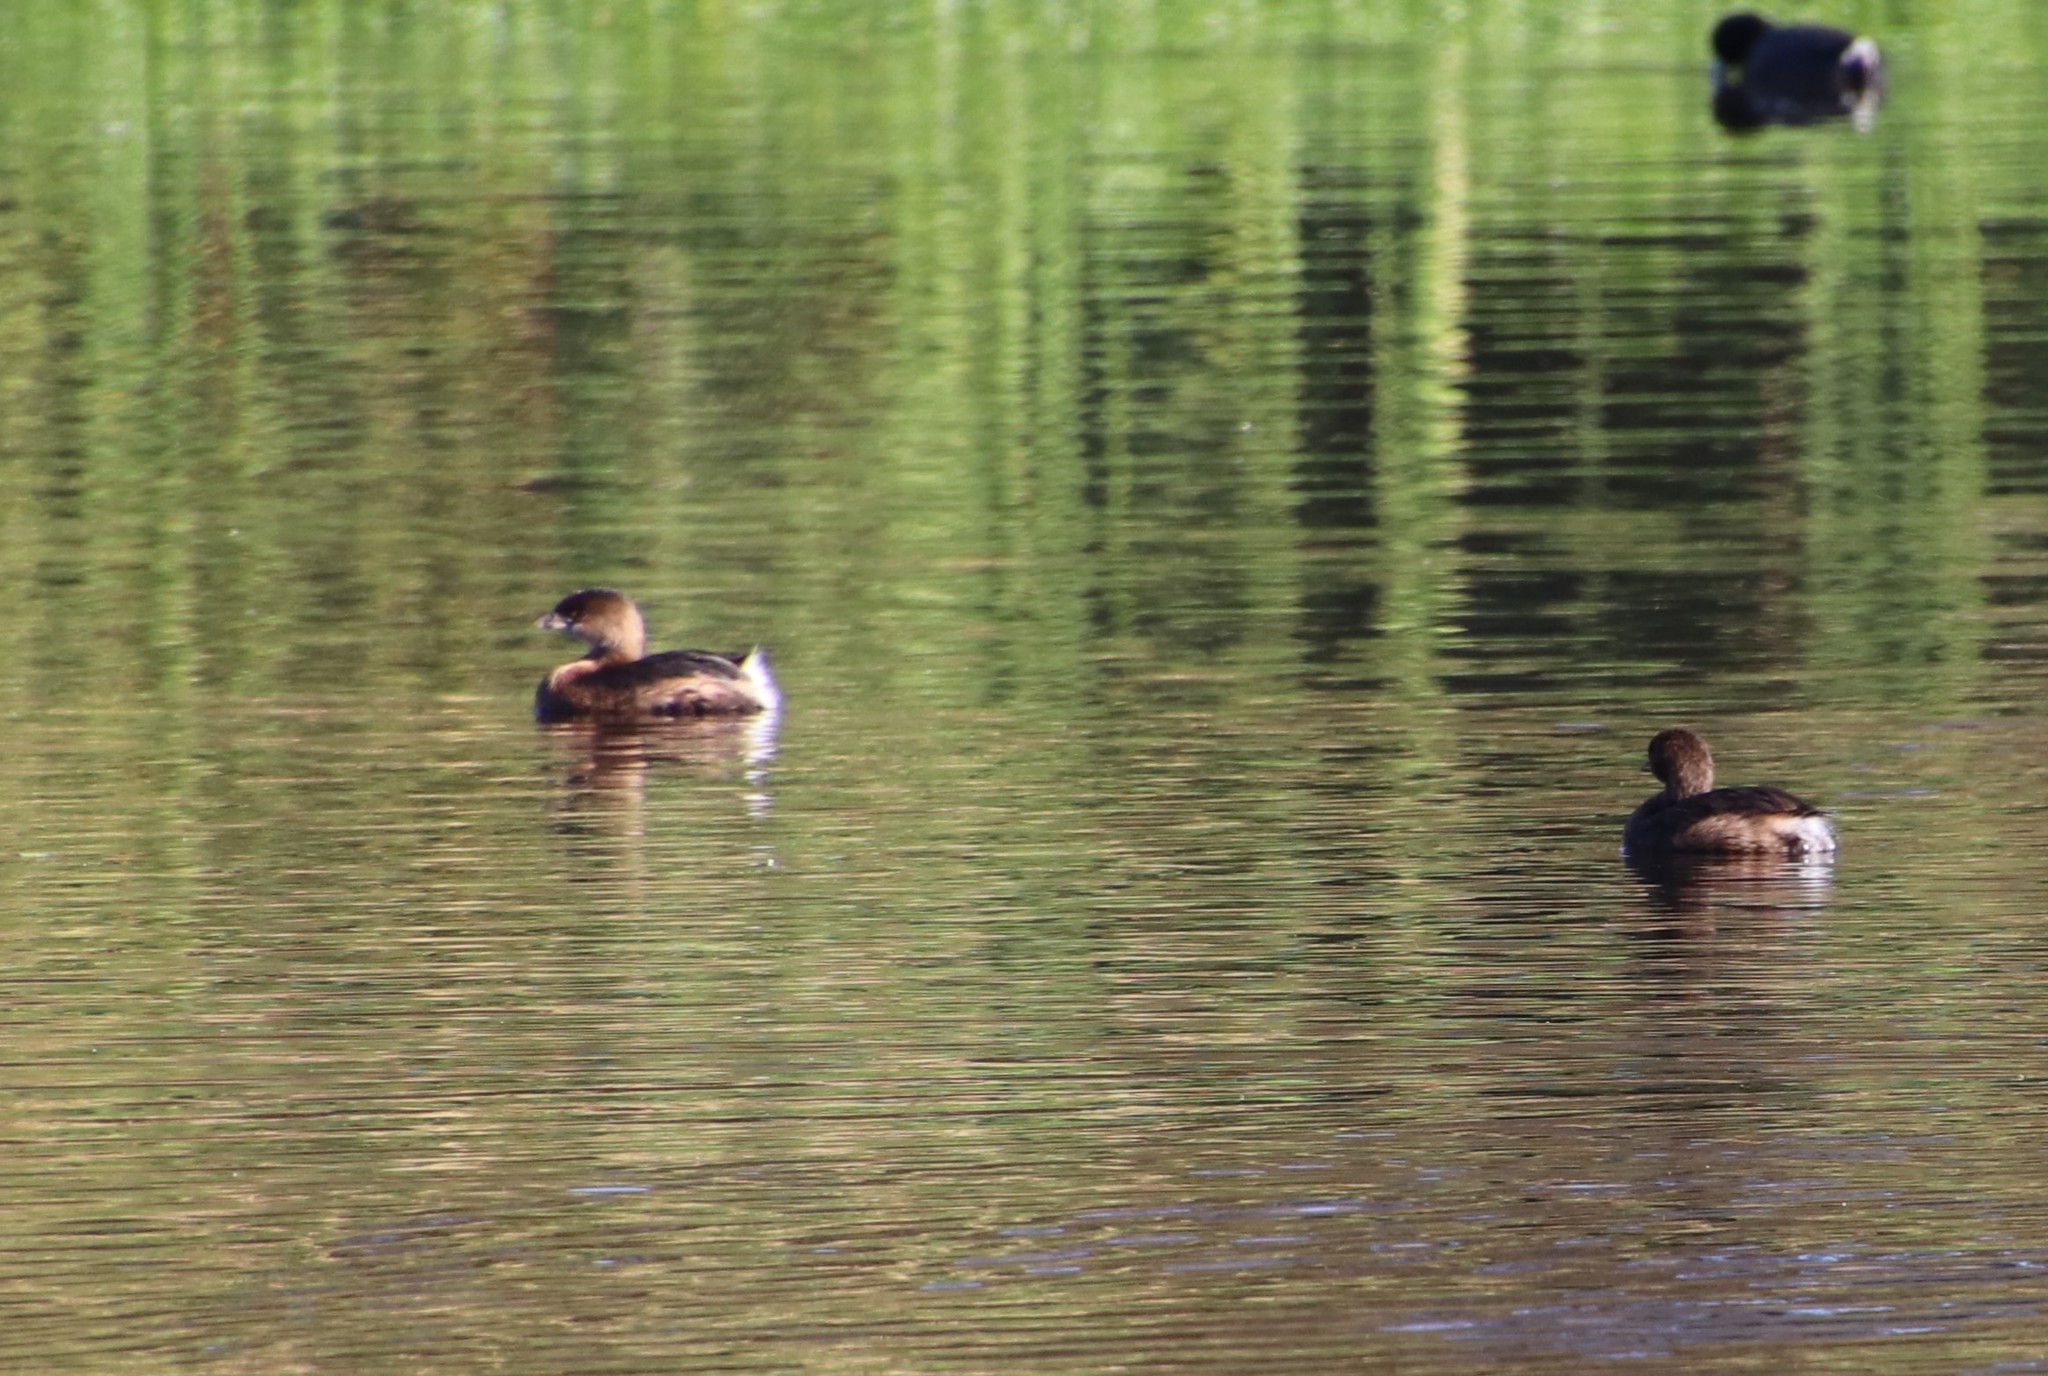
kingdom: Animalia
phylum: Chordata
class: Aves
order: Podicipediformes
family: Podicipedidae
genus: Podilymbus
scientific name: Podilymbus podiceps
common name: Pied-billed grebe
